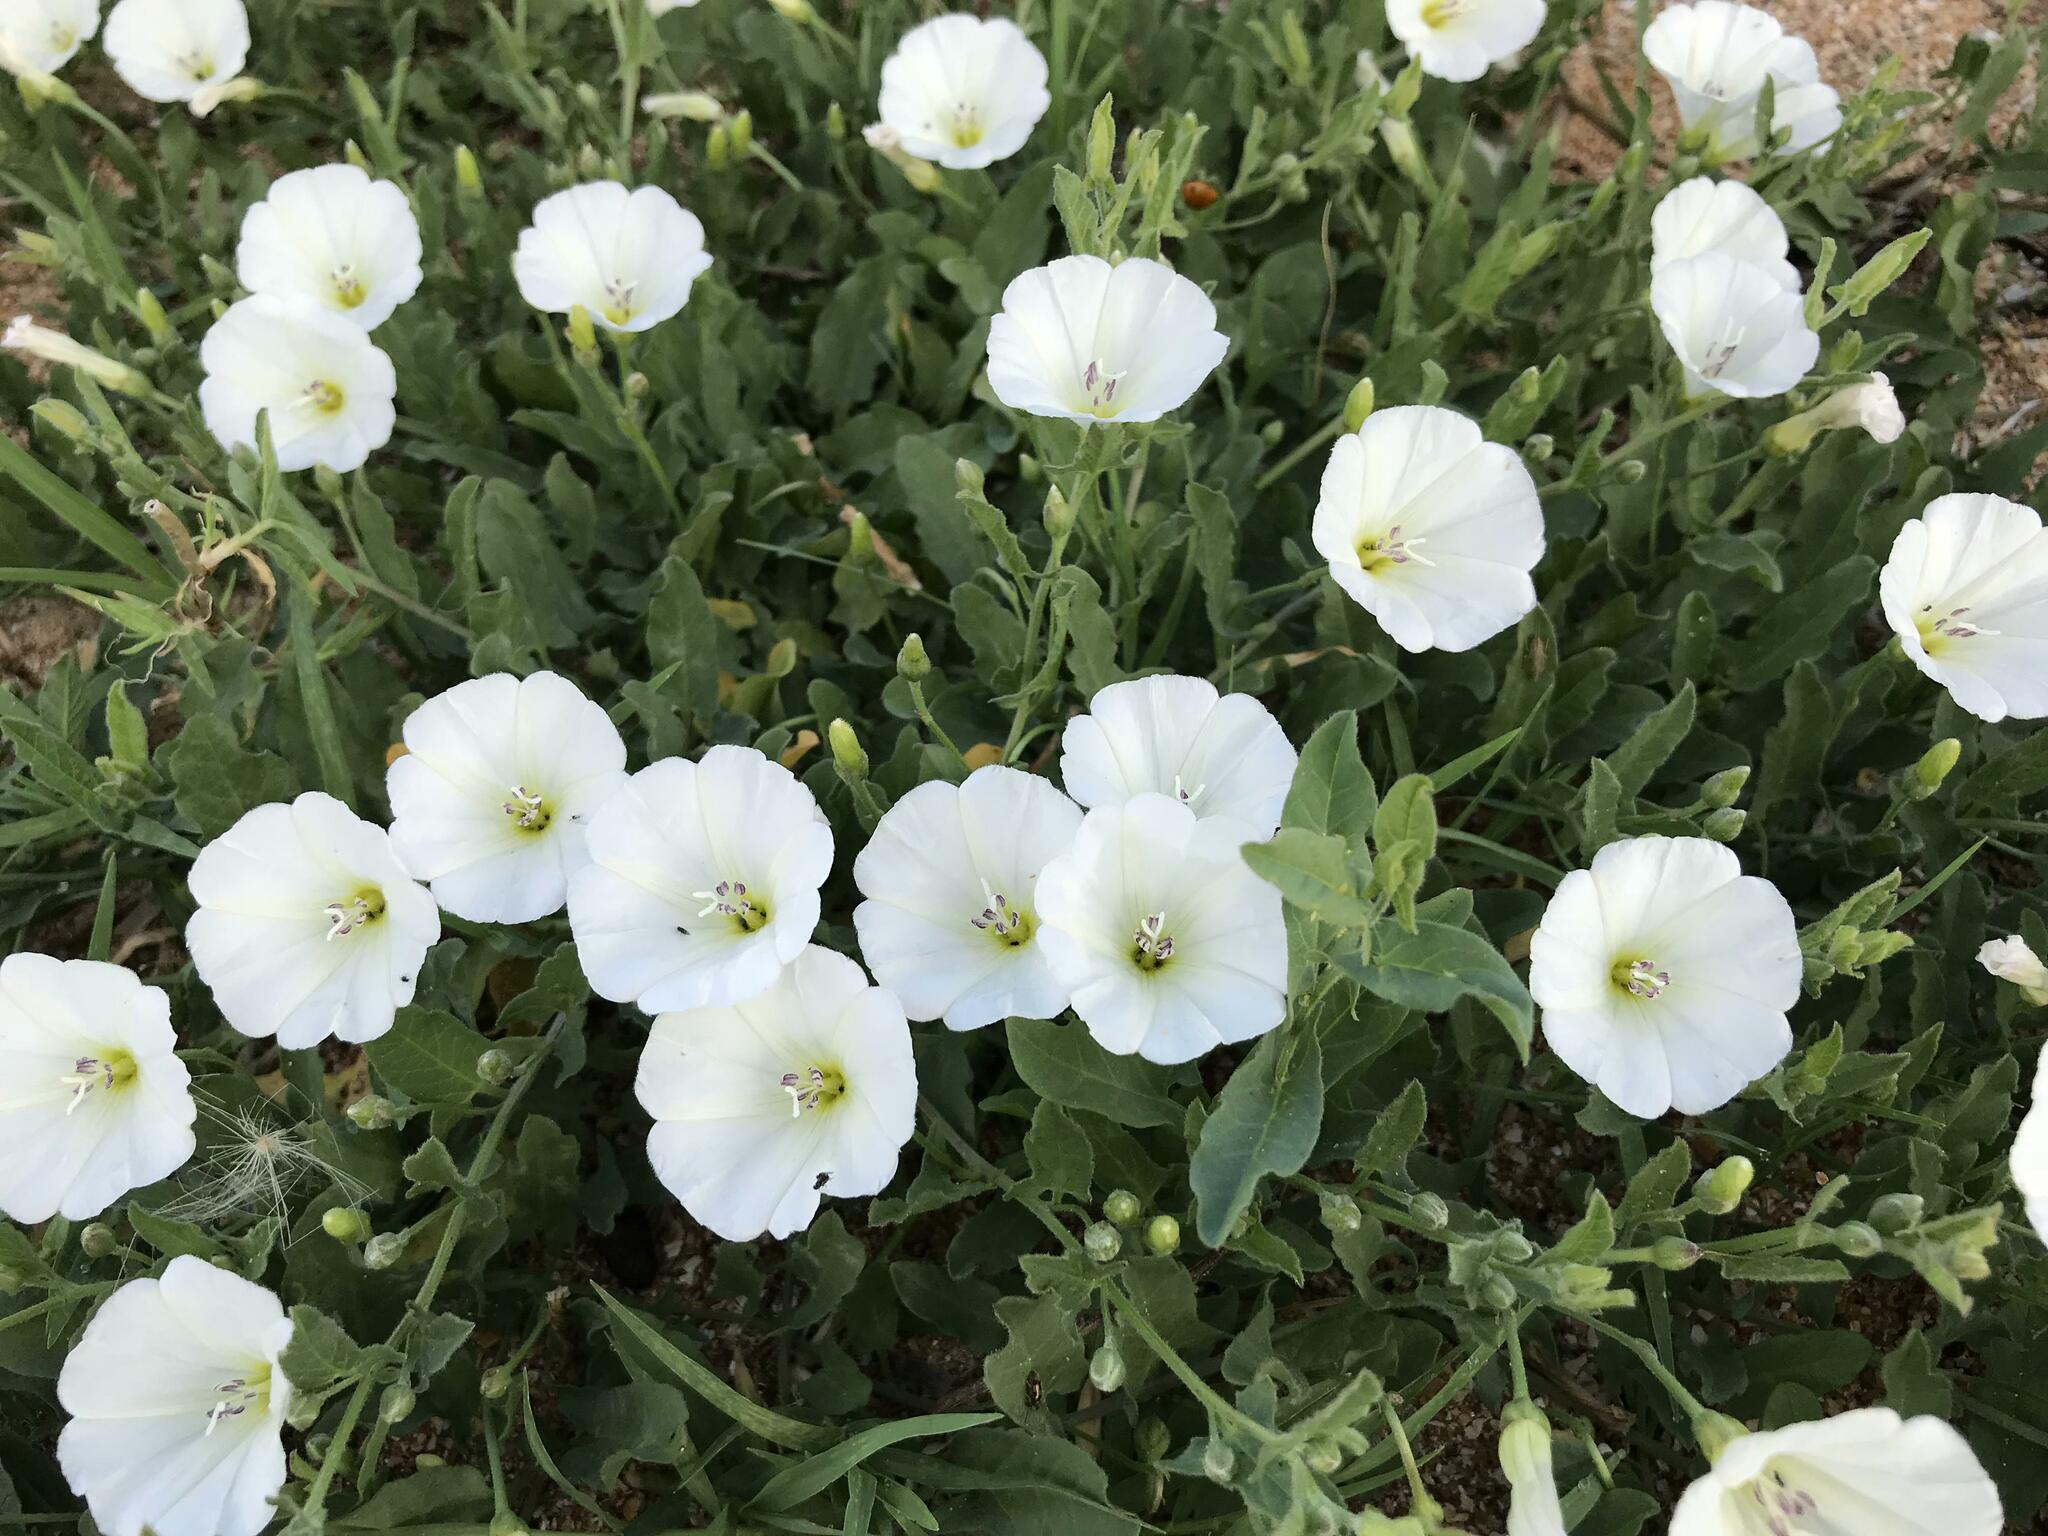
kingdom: Plantae
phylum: Tracheophyta
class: Magnoliopsida
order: Solanales
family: Convolvulaceae
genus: Convolvulus
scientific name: Convolvulus arvensis
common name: Field bindweed
